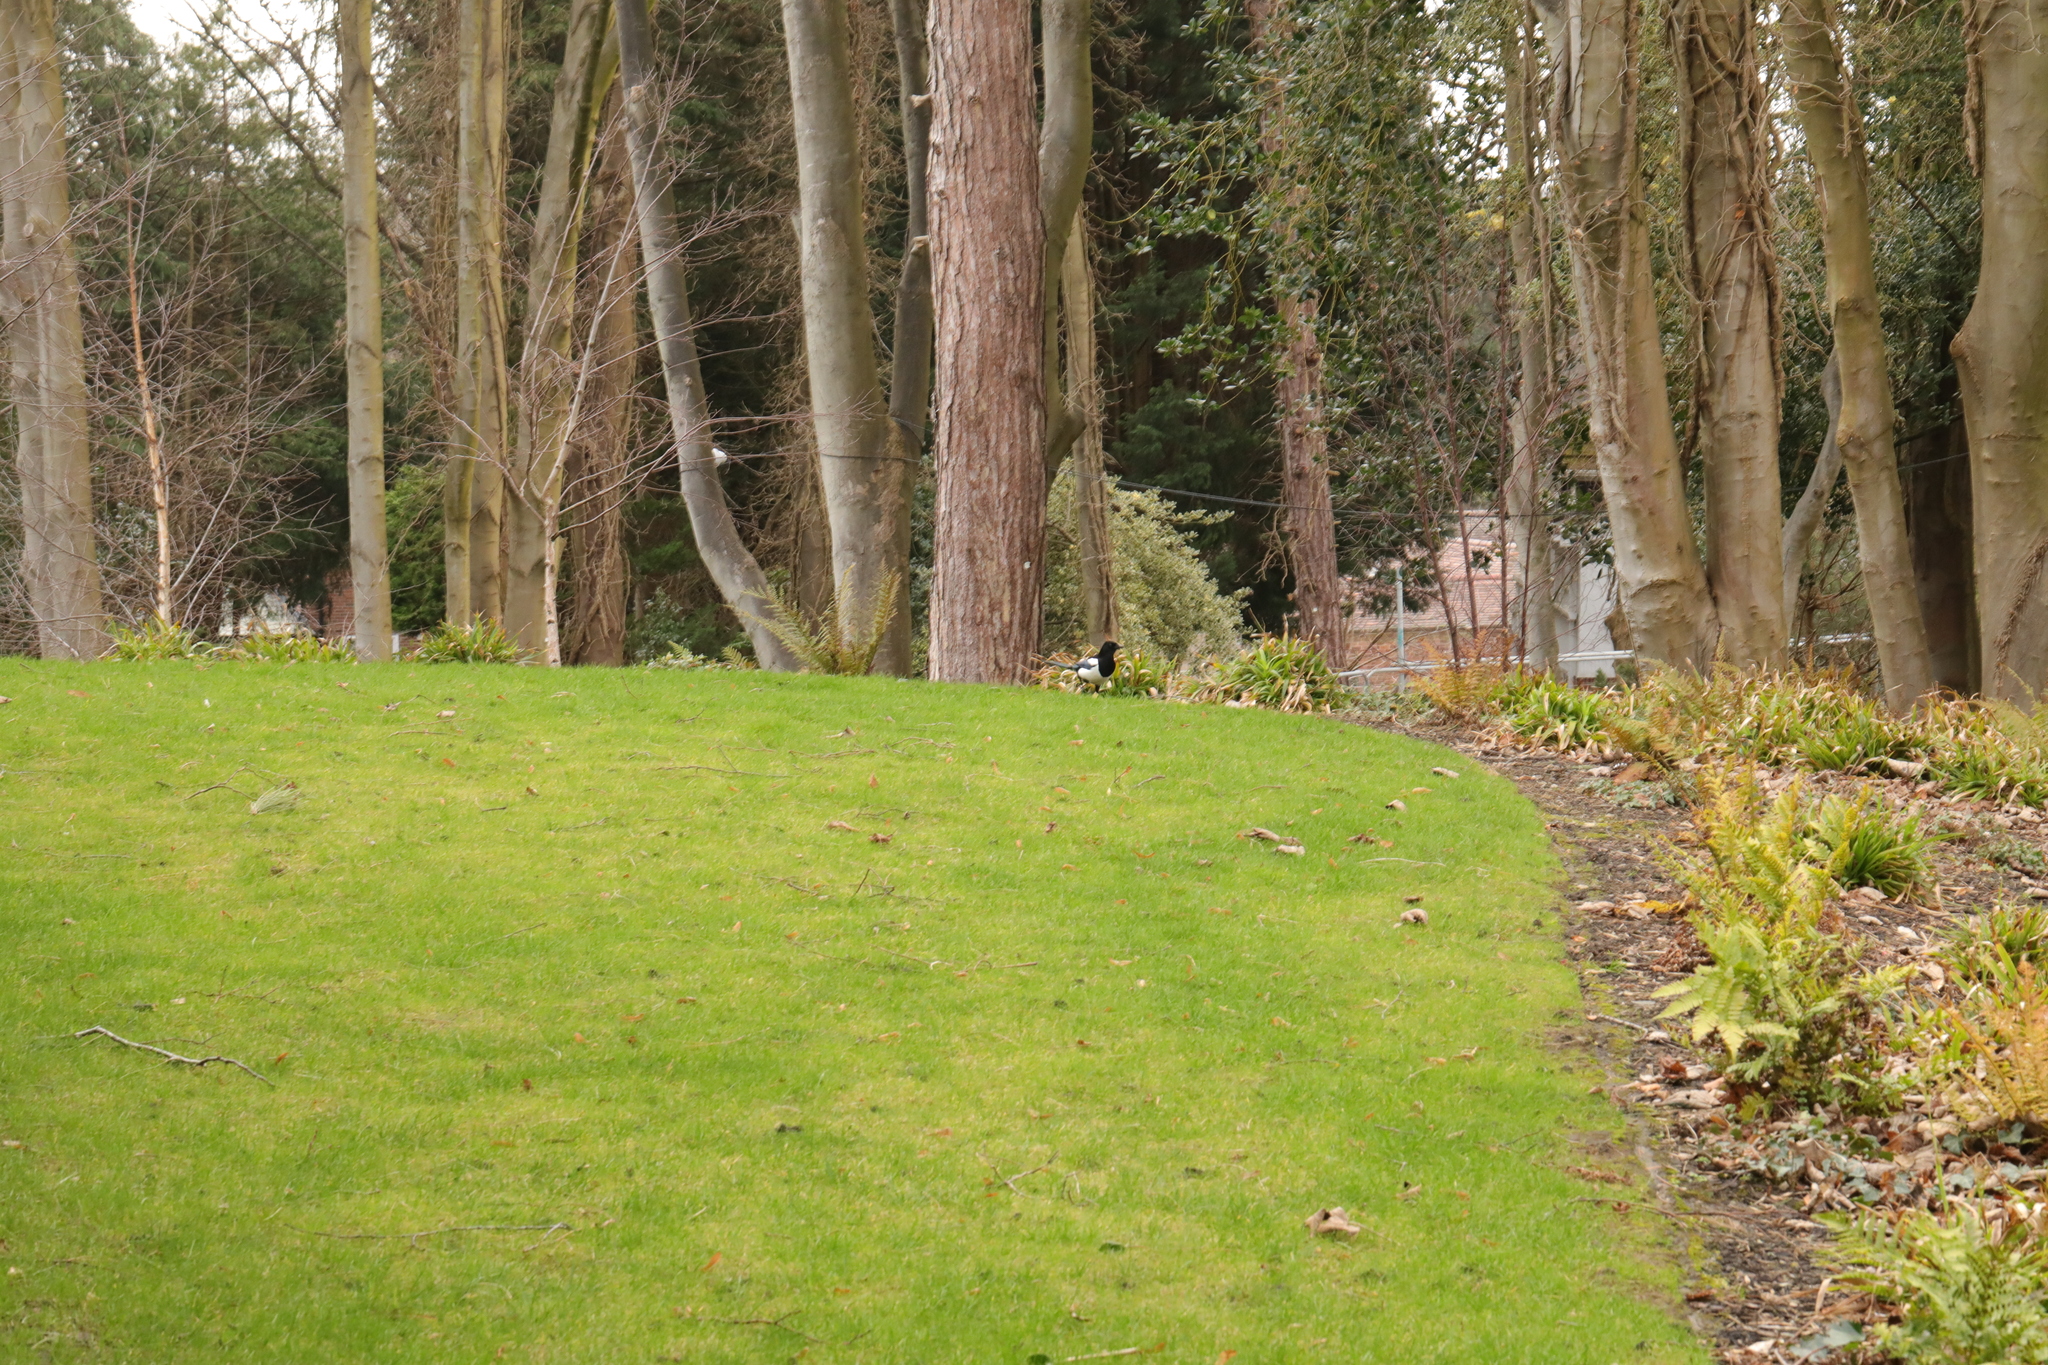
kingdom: Animalia
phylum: Chordata
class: Aves
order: Passeriformes
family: Corvidae
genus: Pica
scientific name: Pica pica
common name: Eurasian magpie
